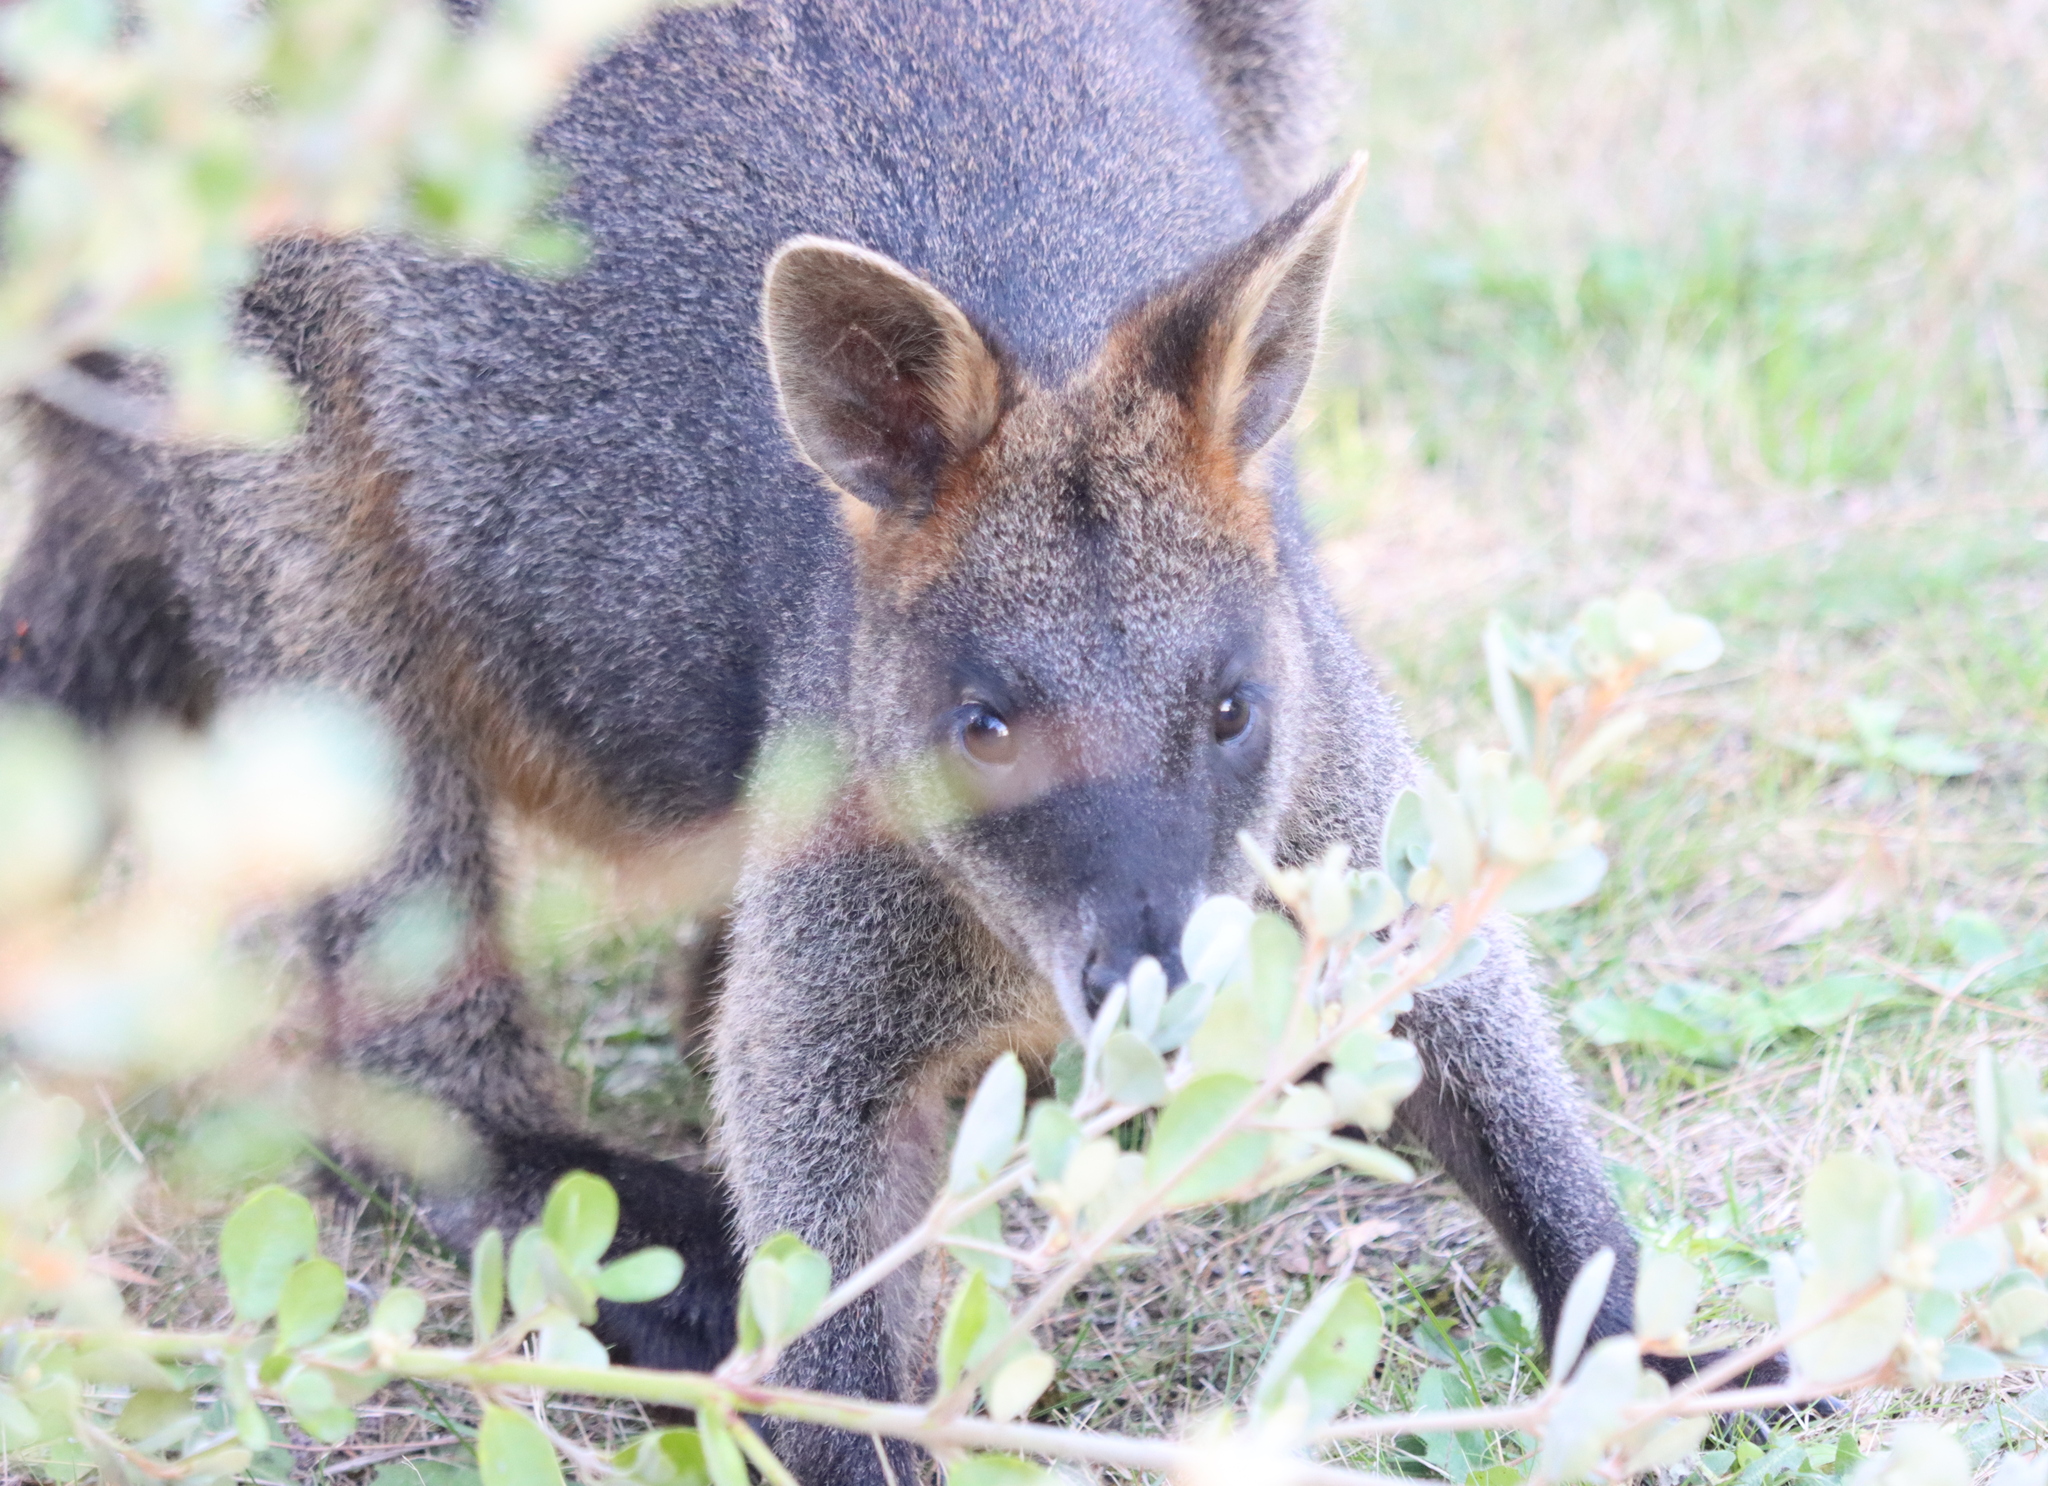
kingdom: Animalia
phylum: Chordata
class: Mammalia
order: Diprotodontia
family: Macropodidae
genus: Wallabia
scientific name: Wallabia bicolor
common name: Swamp wallaby
